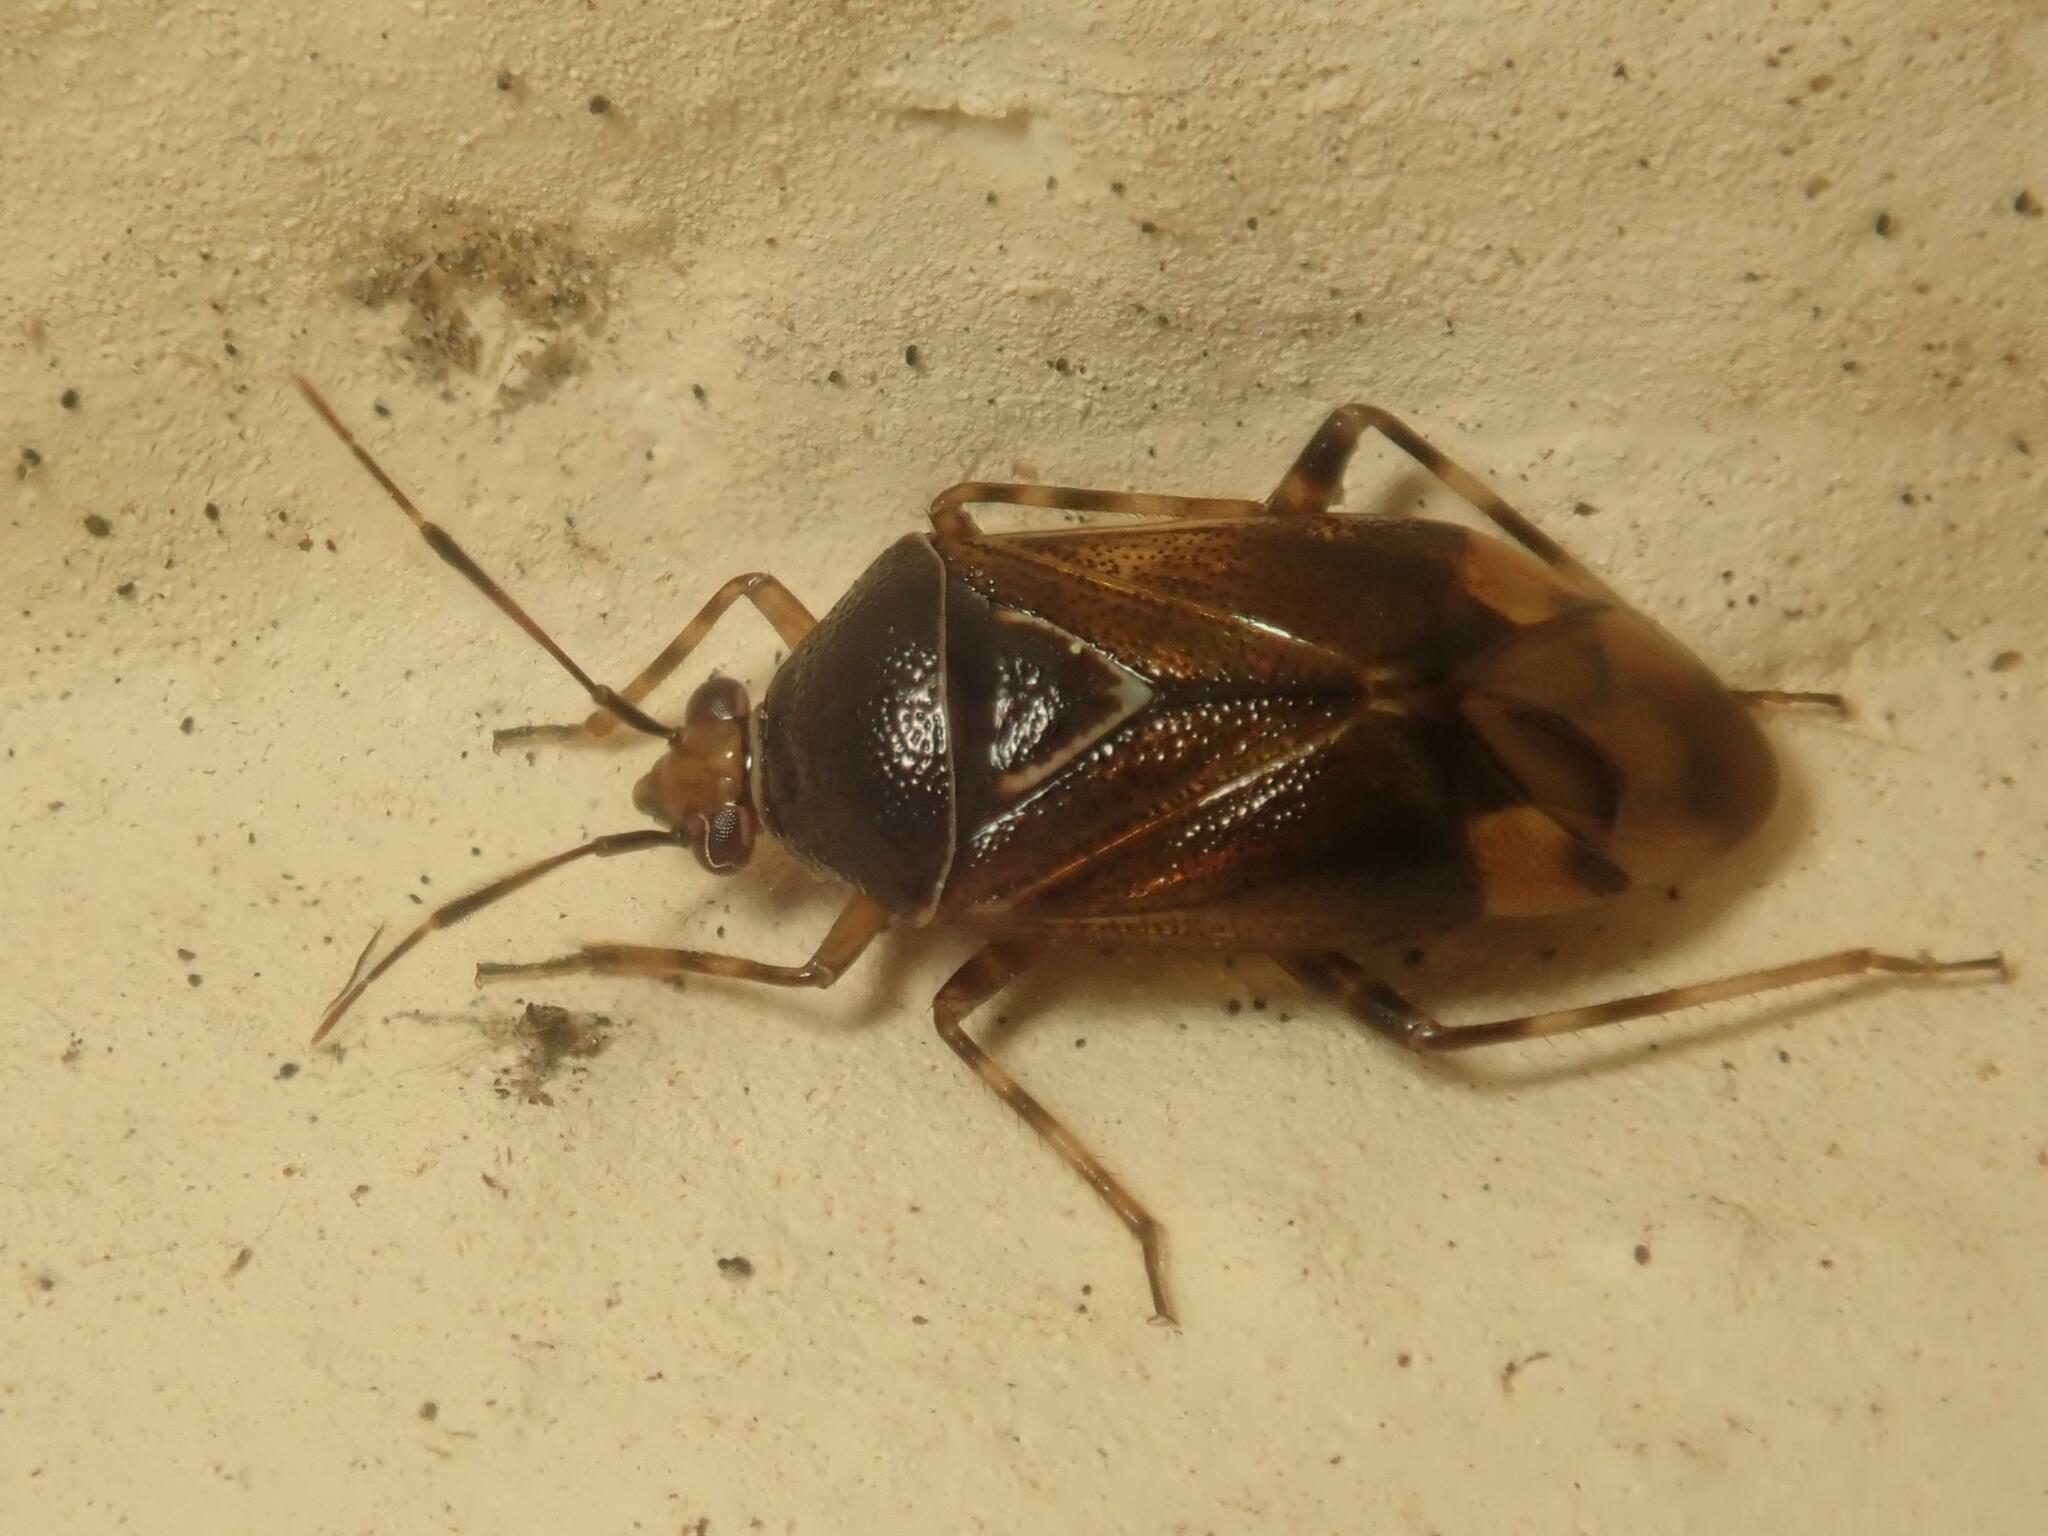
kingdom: Animalia
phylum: Arthropoda
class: Insecta
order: Hemiptera
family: Miridae
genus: Deraeocoris
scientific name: Deraeocoris flavilinea
